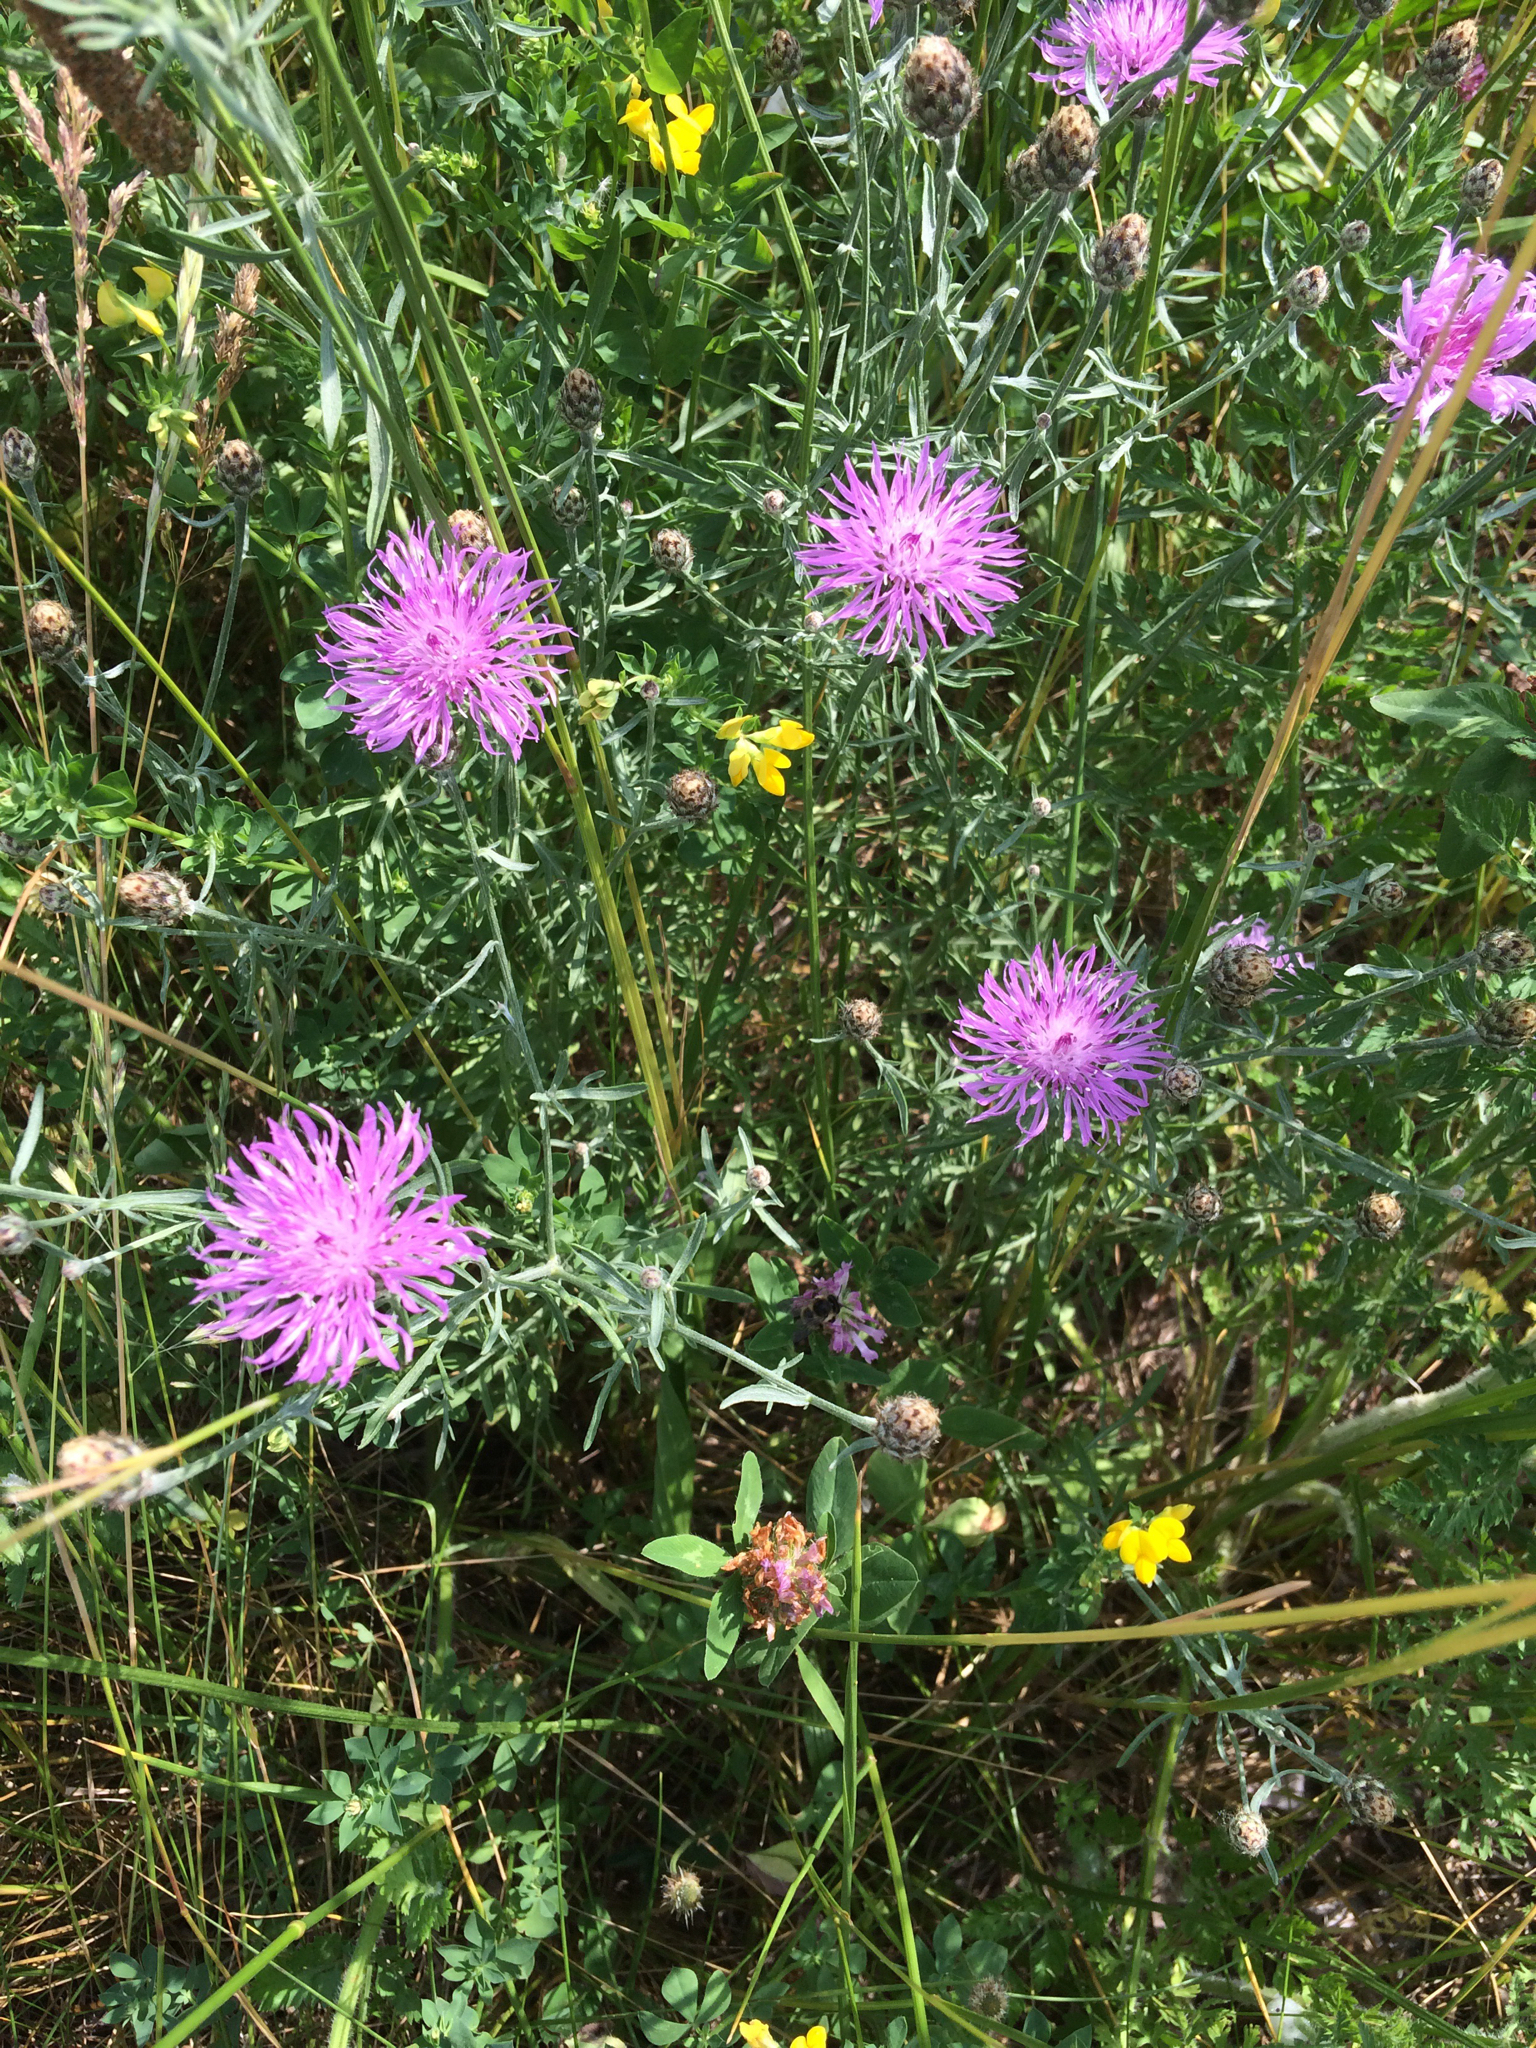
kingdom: Plantae
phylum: Tracheophyta
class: Magnoliopsida
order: Asterales
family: Asteraceae
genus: Centaurea
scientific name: Centaurea stoebe
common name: Spotted knapweed
